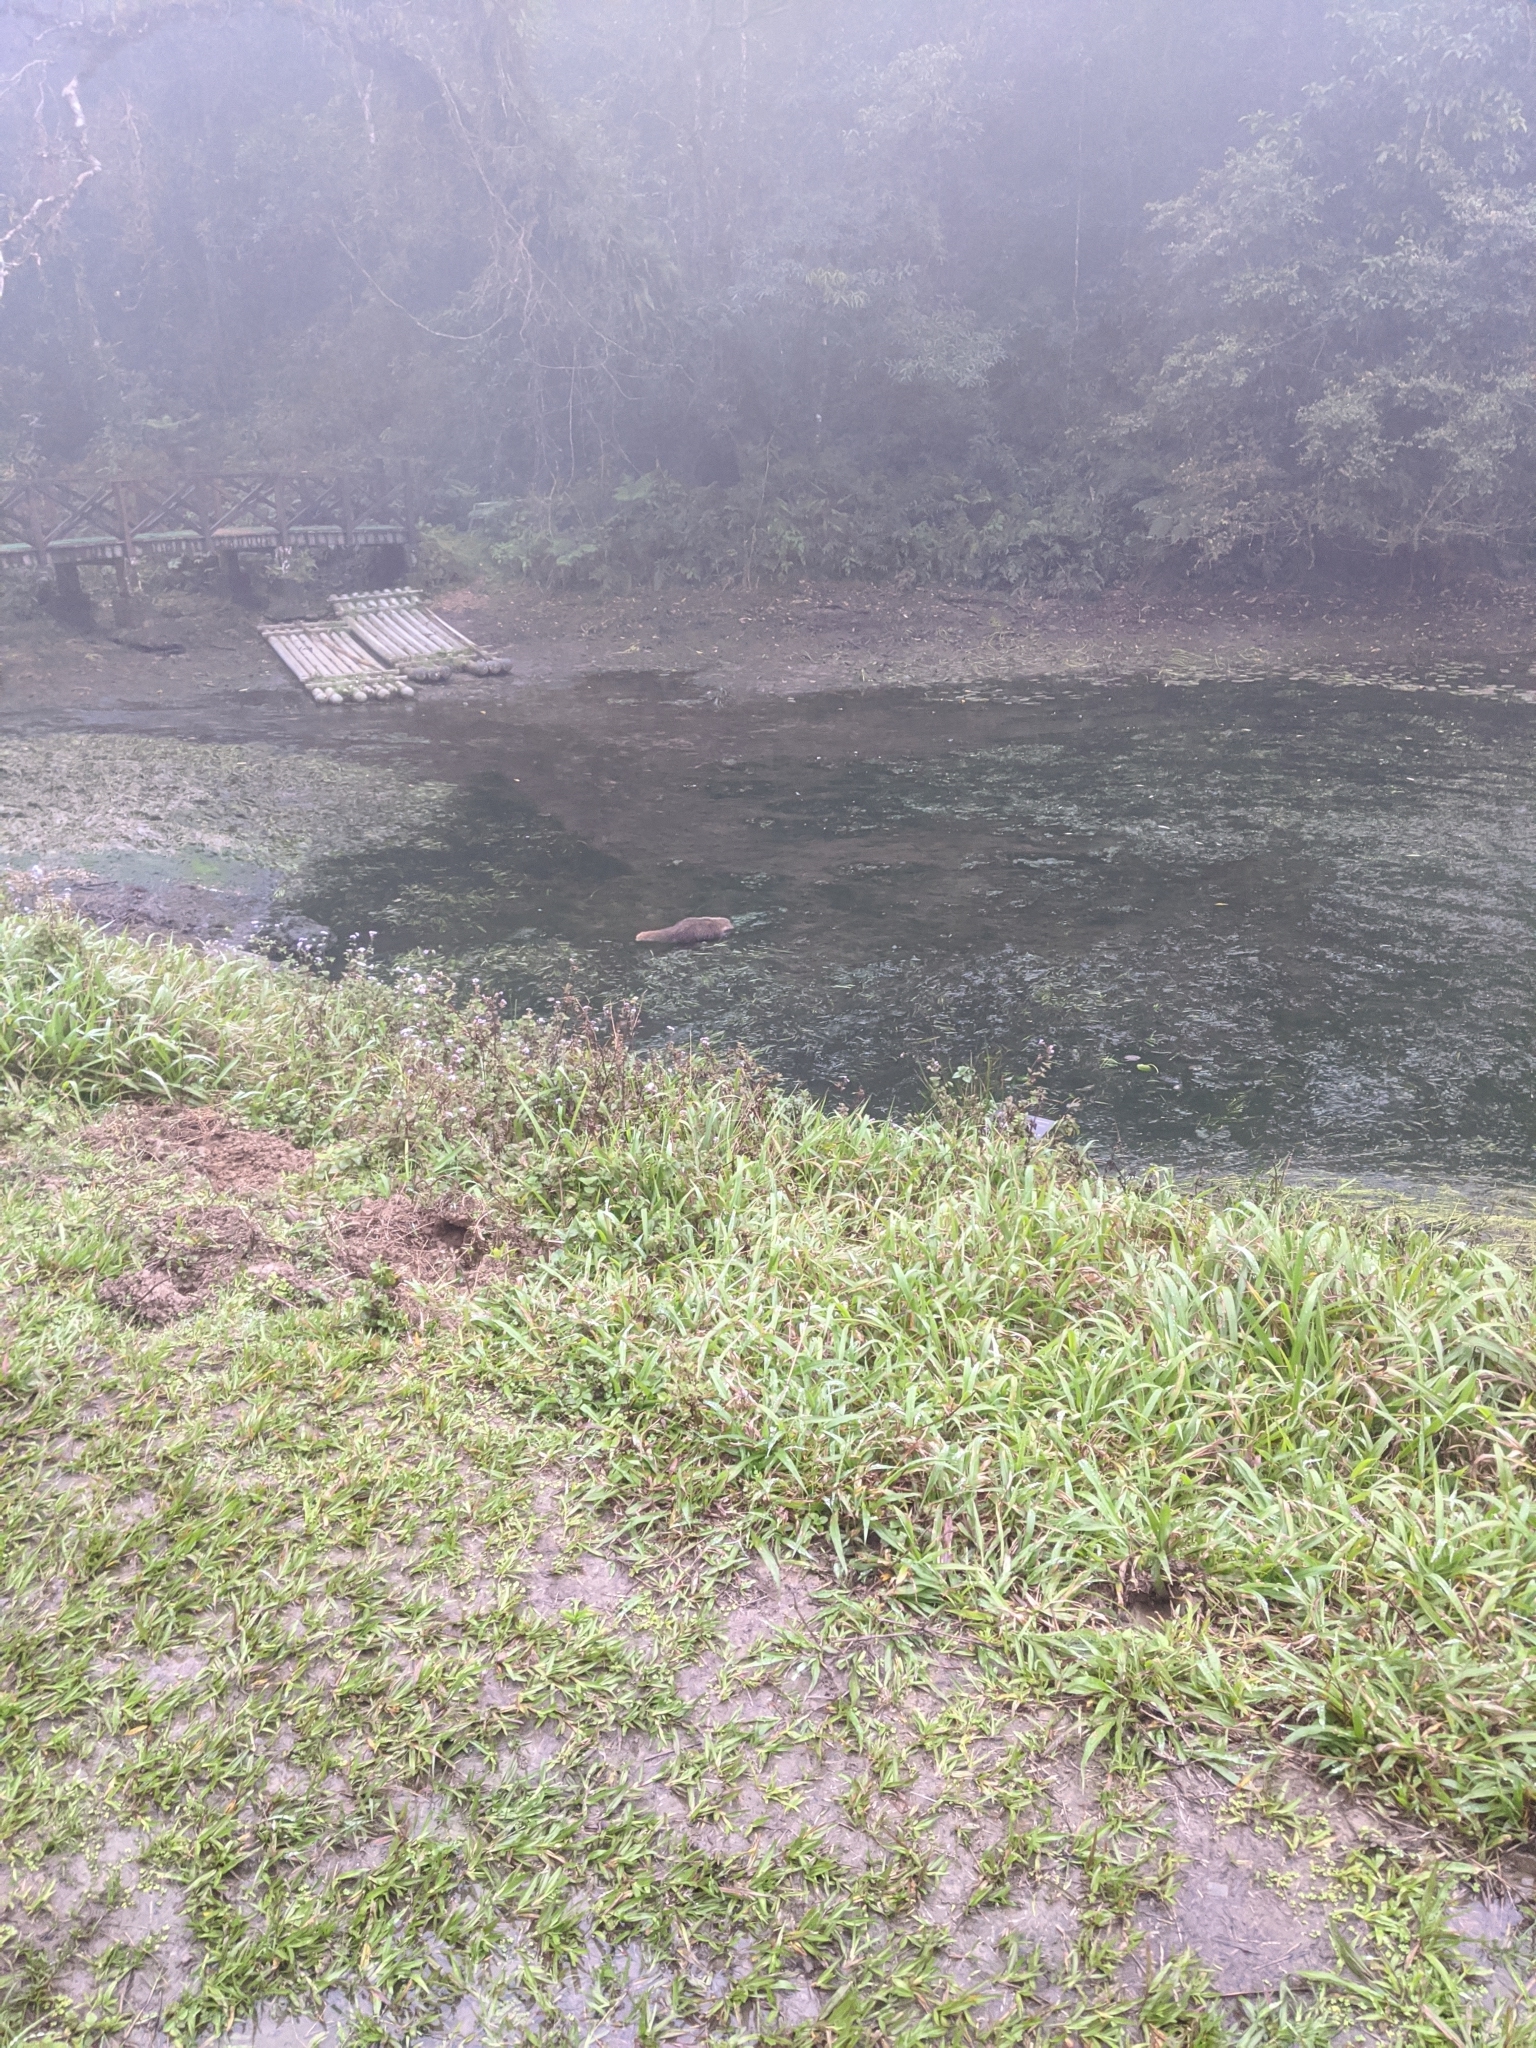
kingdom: Animalia
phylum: Chordata
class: Mammalia
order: Carnivora
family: Herpestidae
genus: Herpestes
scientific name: Herpestes urva
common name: Crab-eating mongoose
